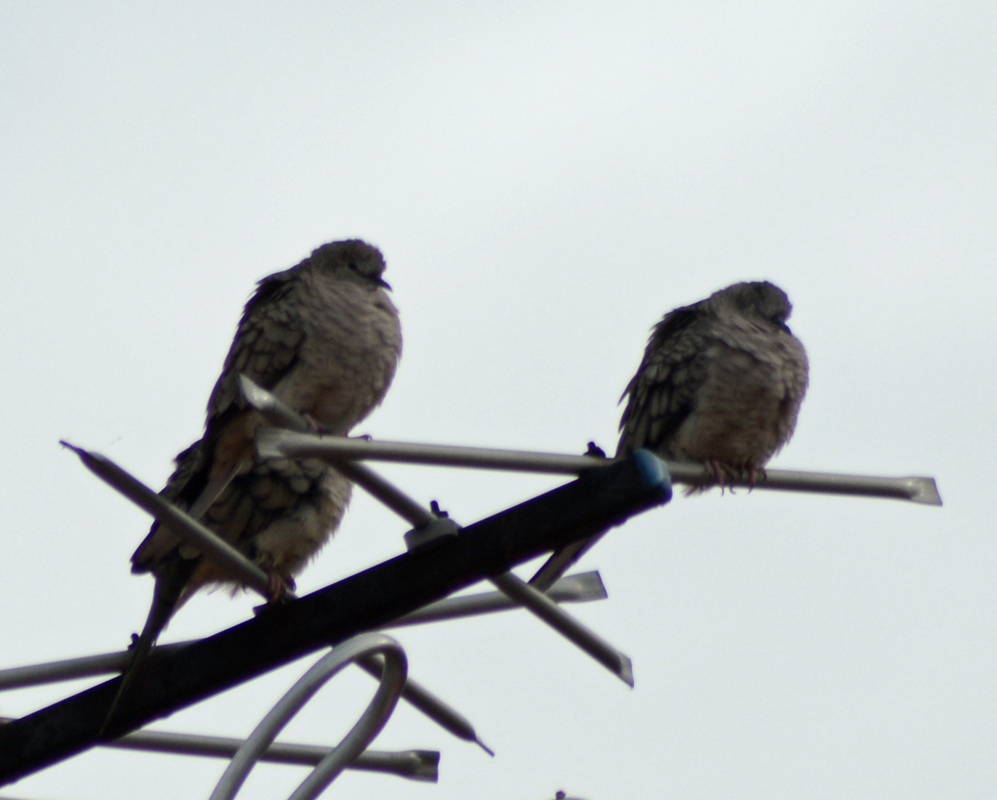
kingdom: Animalia
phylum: Chordata
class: Aves
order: Columbiformes
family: Columbidae
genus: Columbina
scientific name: Columbina inca
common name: Inca dove
